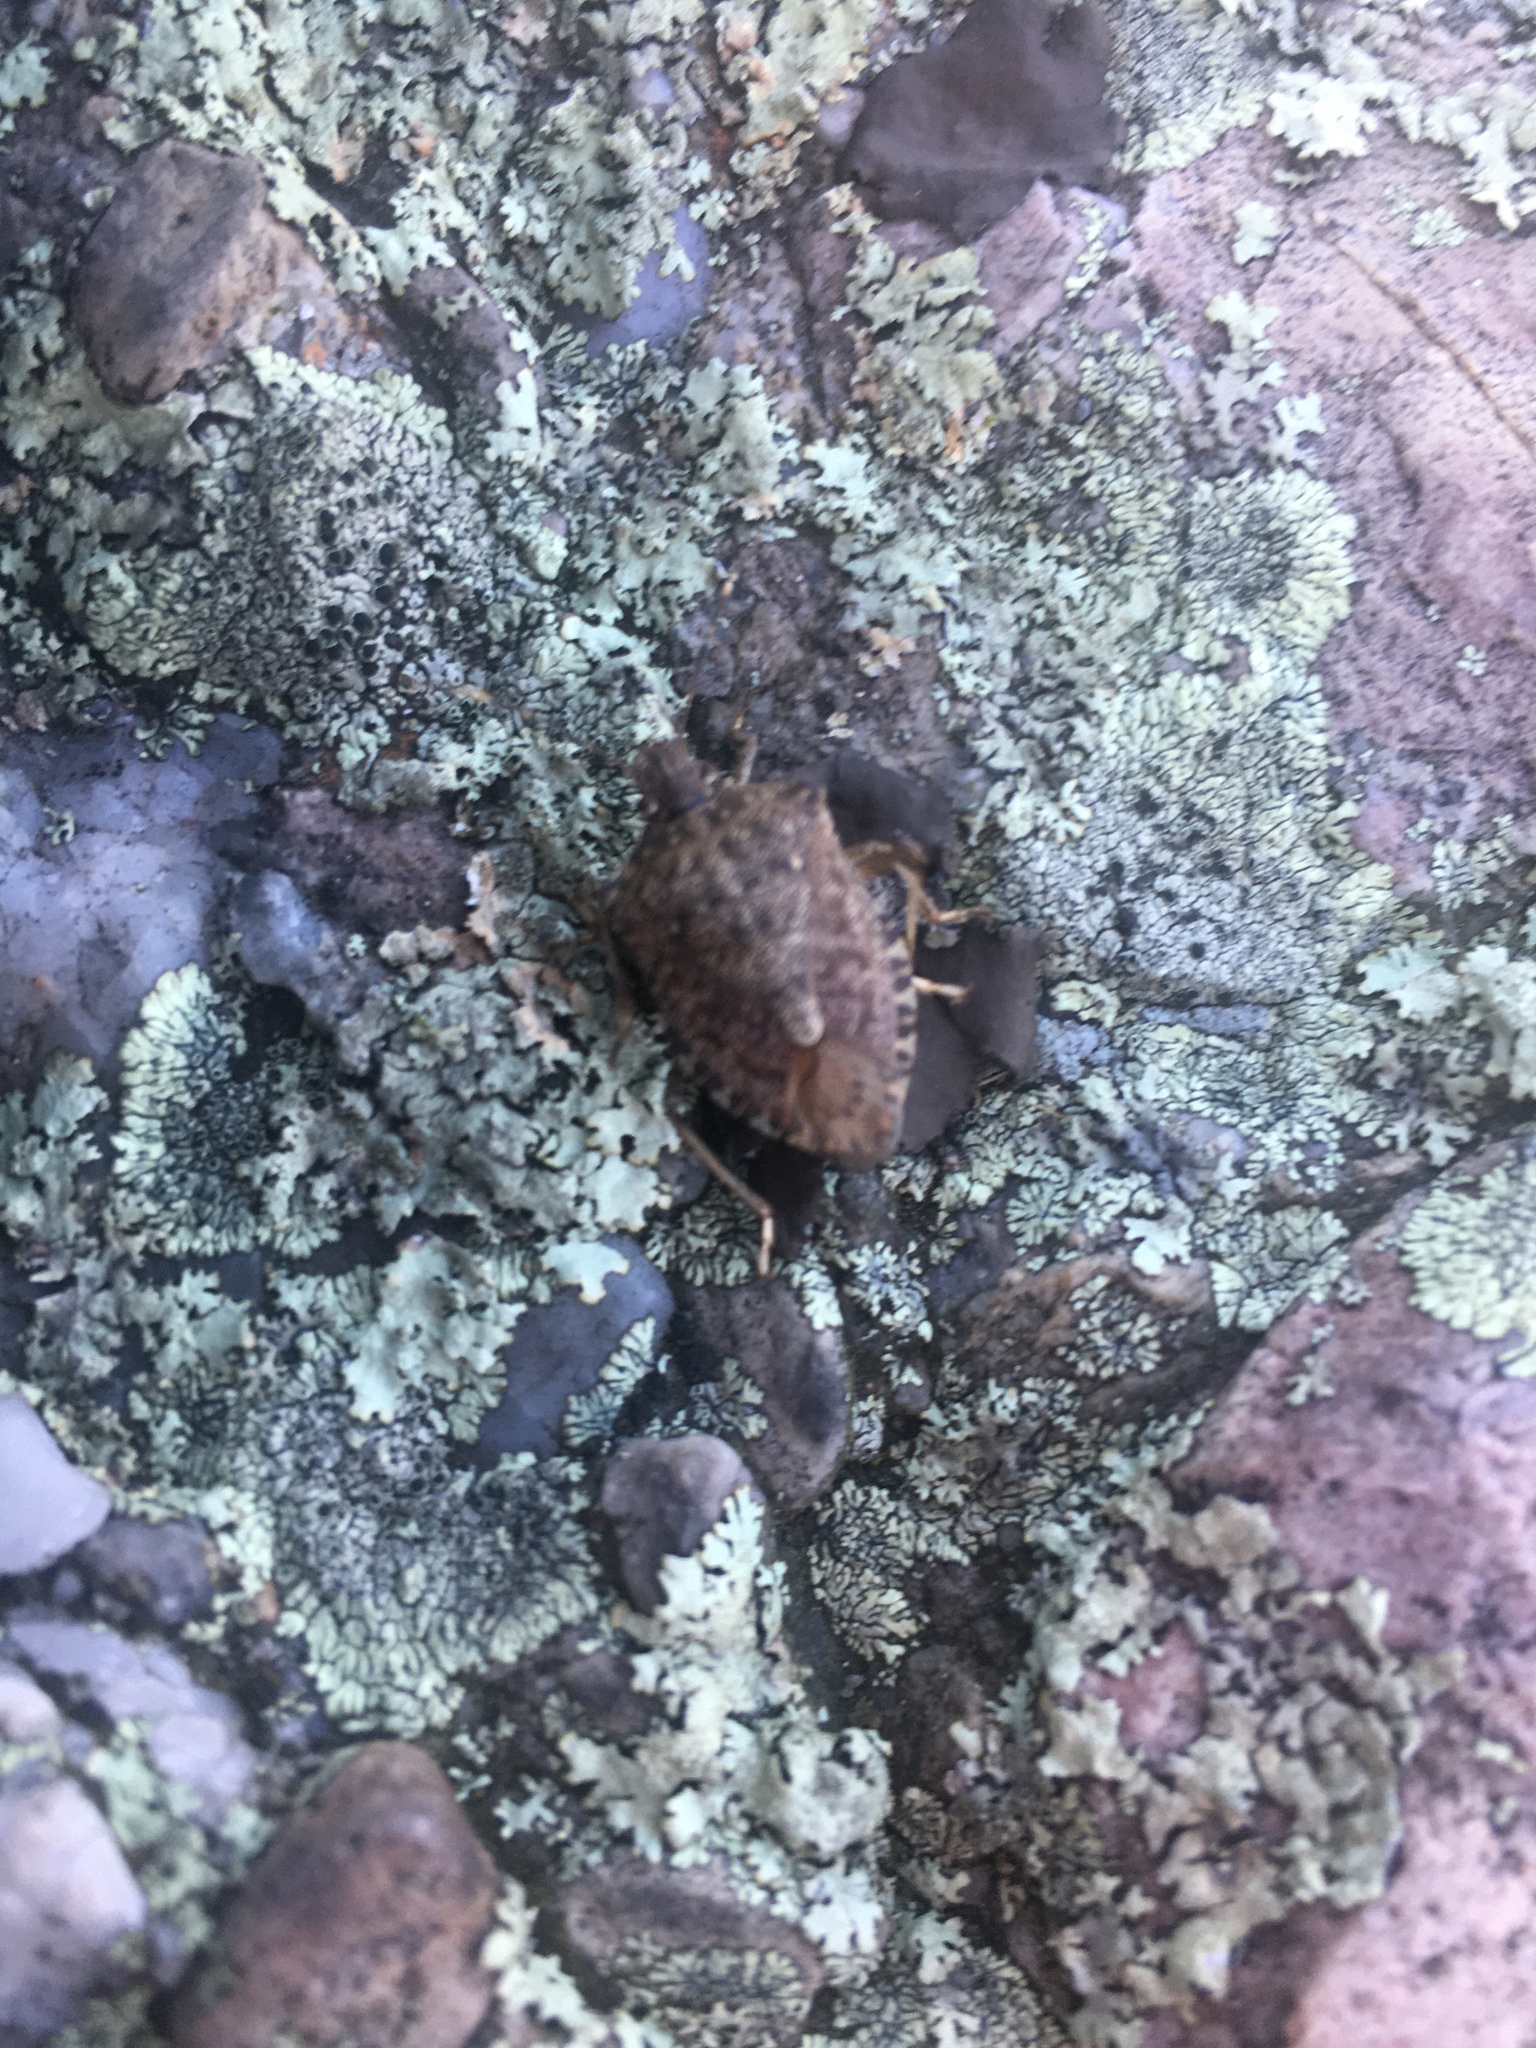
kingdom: Animalia
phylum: Arthropoda
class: Insecta
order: Hemiptera
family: Pentatomidae
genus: Halyomorpha
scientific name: Halyomorpha halys
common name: Brown marmorated stink bug
